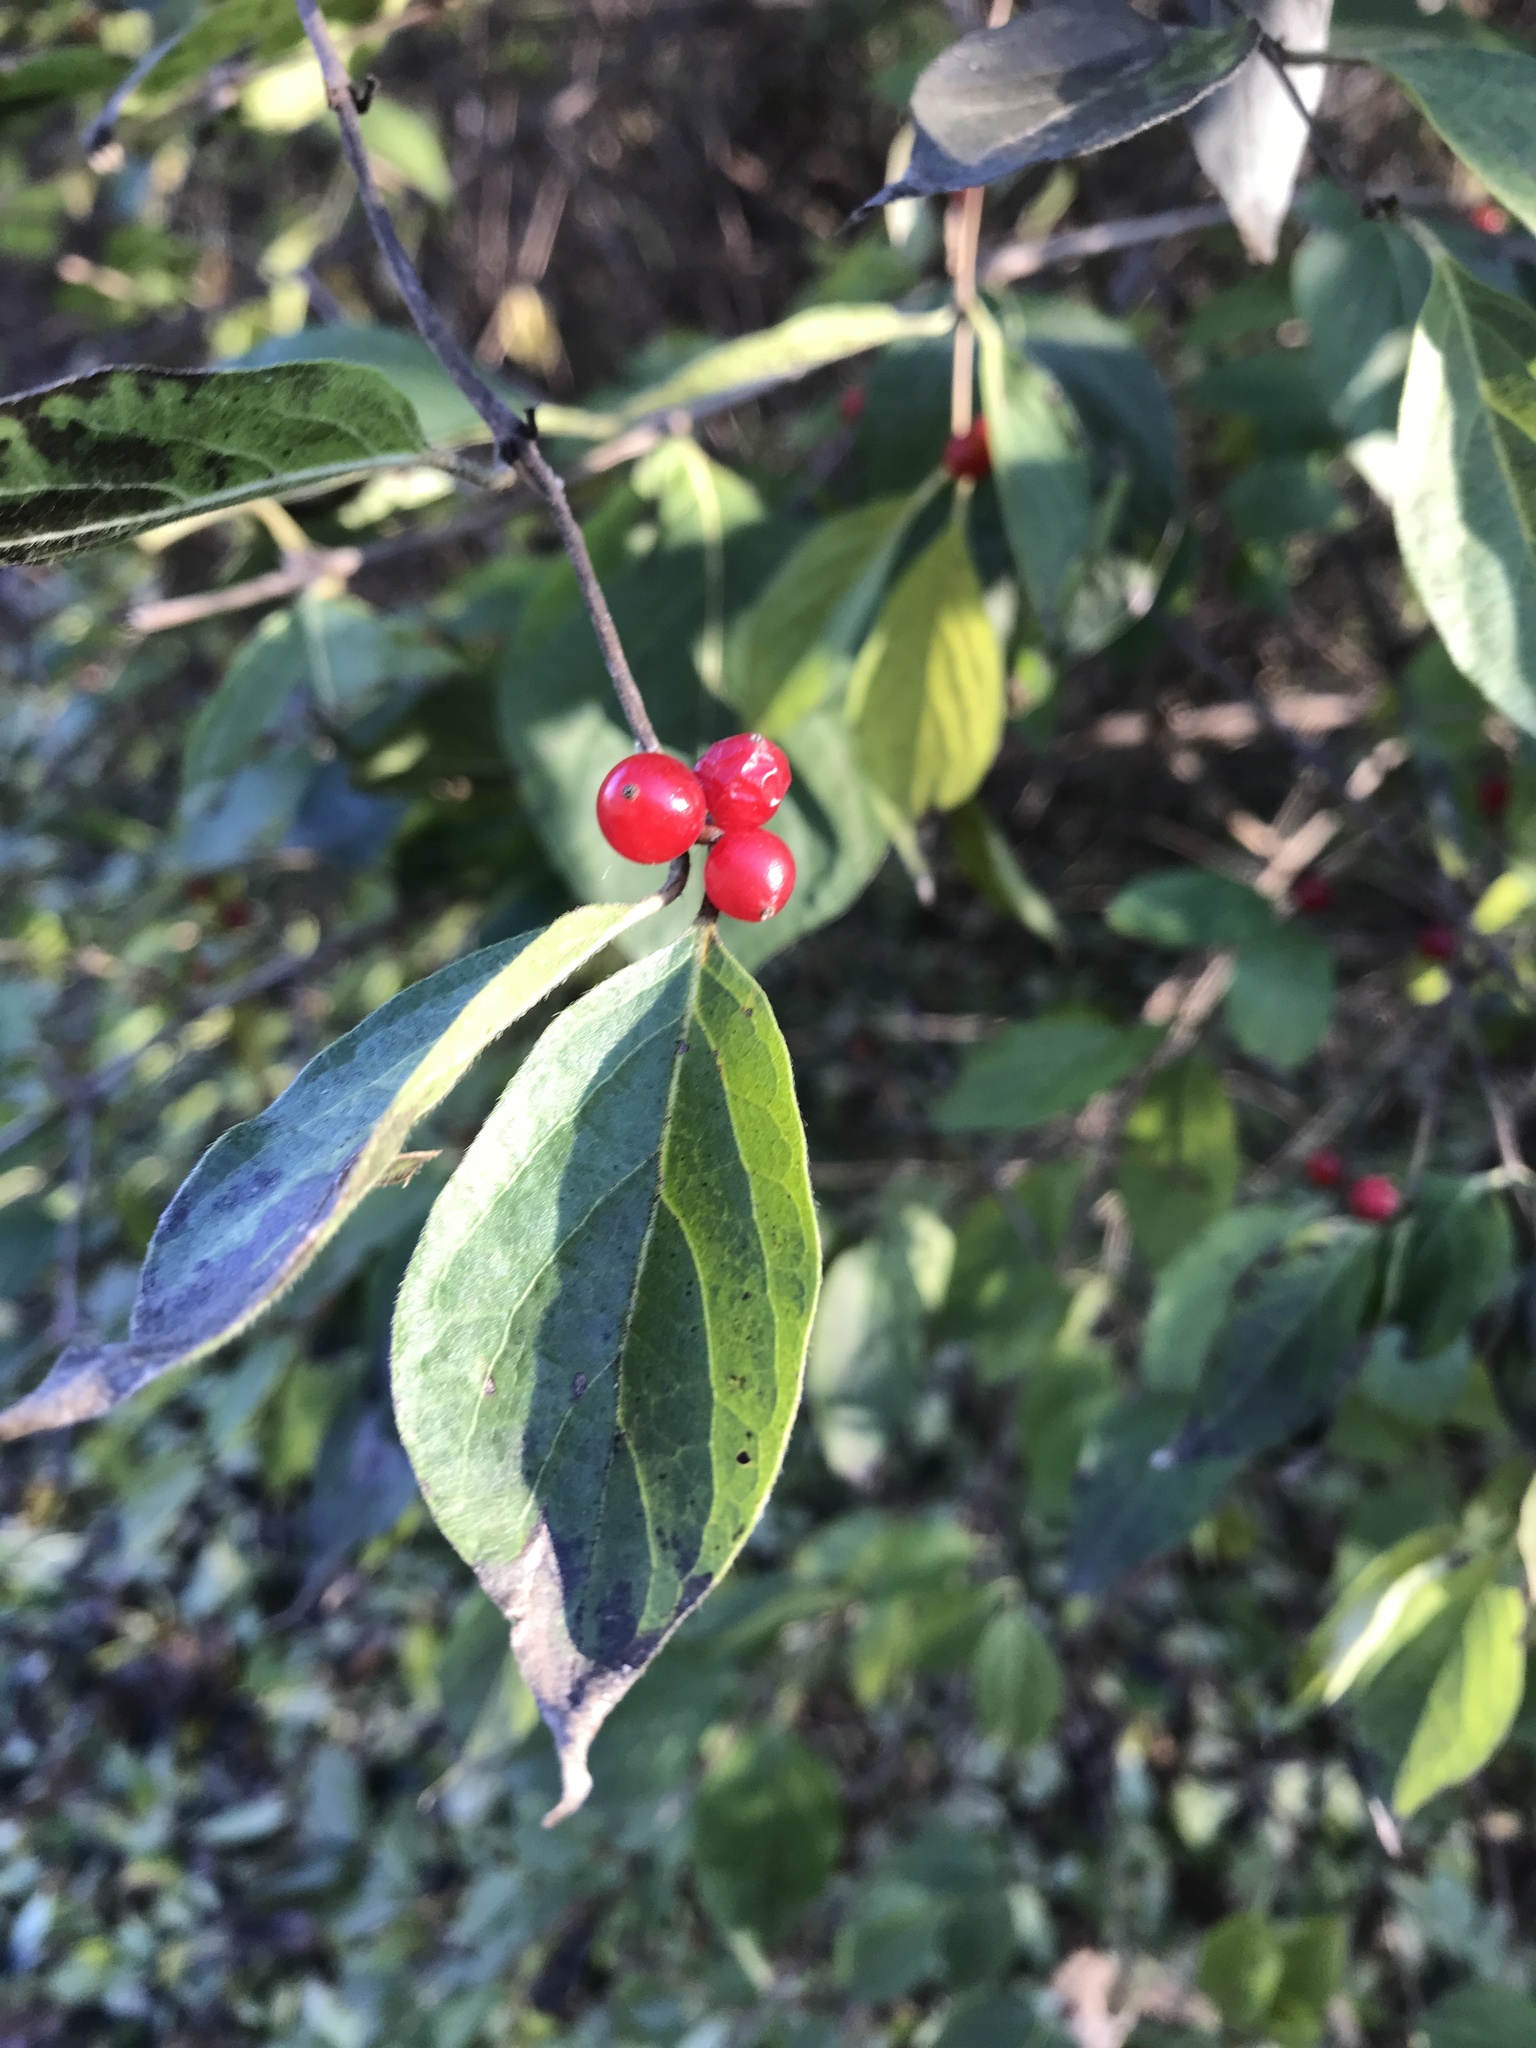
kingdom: Plantae
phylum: Tracheophyta
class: Magnoliopsida
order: Dipsacales
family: Caprifoliaceae
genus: Lonicera
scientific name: Lonicera maackii
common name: Amur honeysuckle
